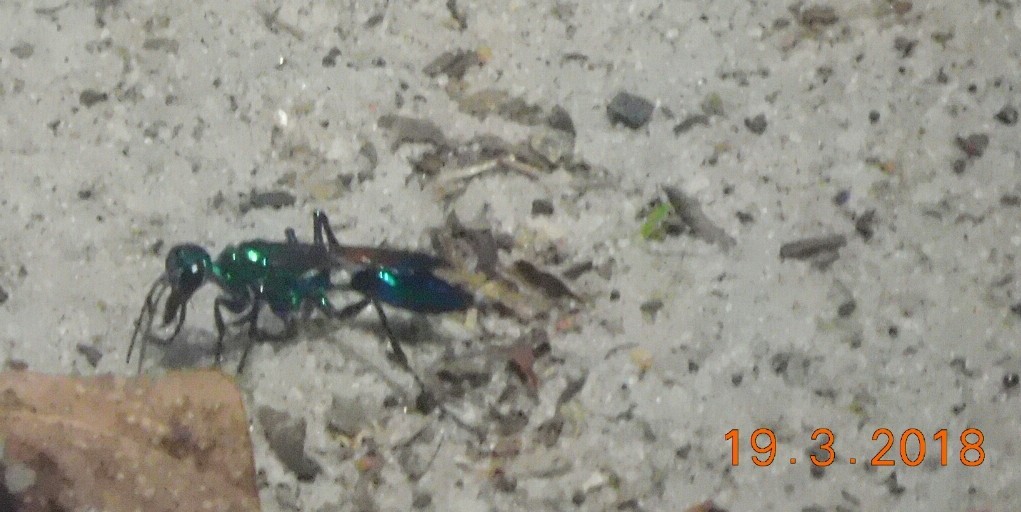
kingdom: Animalia
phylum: Arthropoda
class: Insecta
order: Hymenoptera
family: Sphecidae
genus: Chlorion
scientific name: Chlorion lobatum
